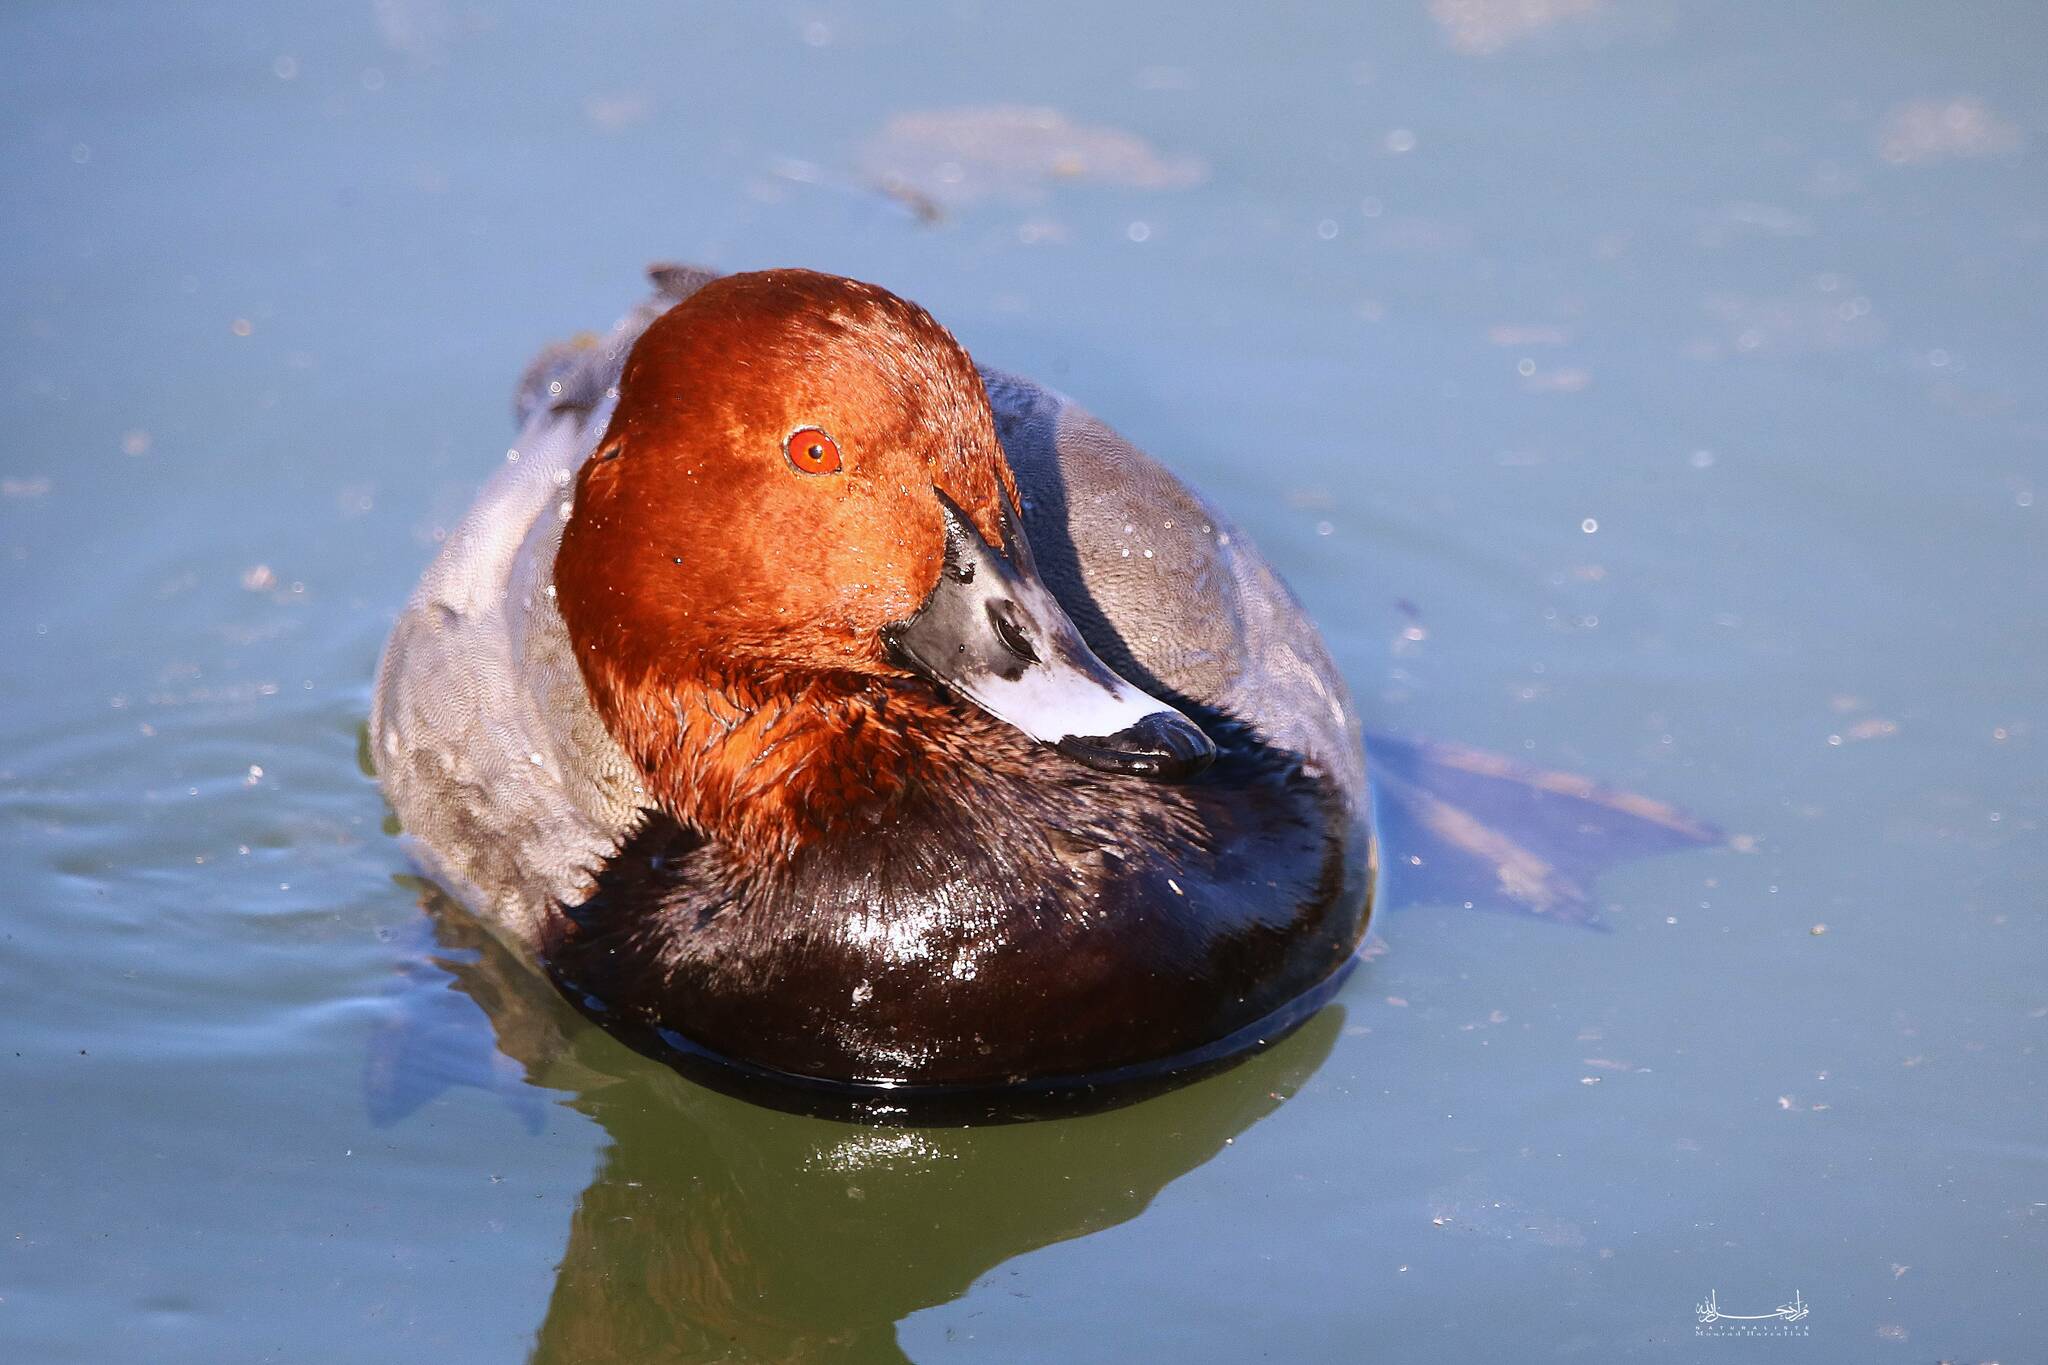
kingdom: Animalia
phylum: Chordata
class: Aves
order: Anseriformes
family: Anatidae
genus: Aythya
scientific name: Aythya ferina
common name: Common pochard
